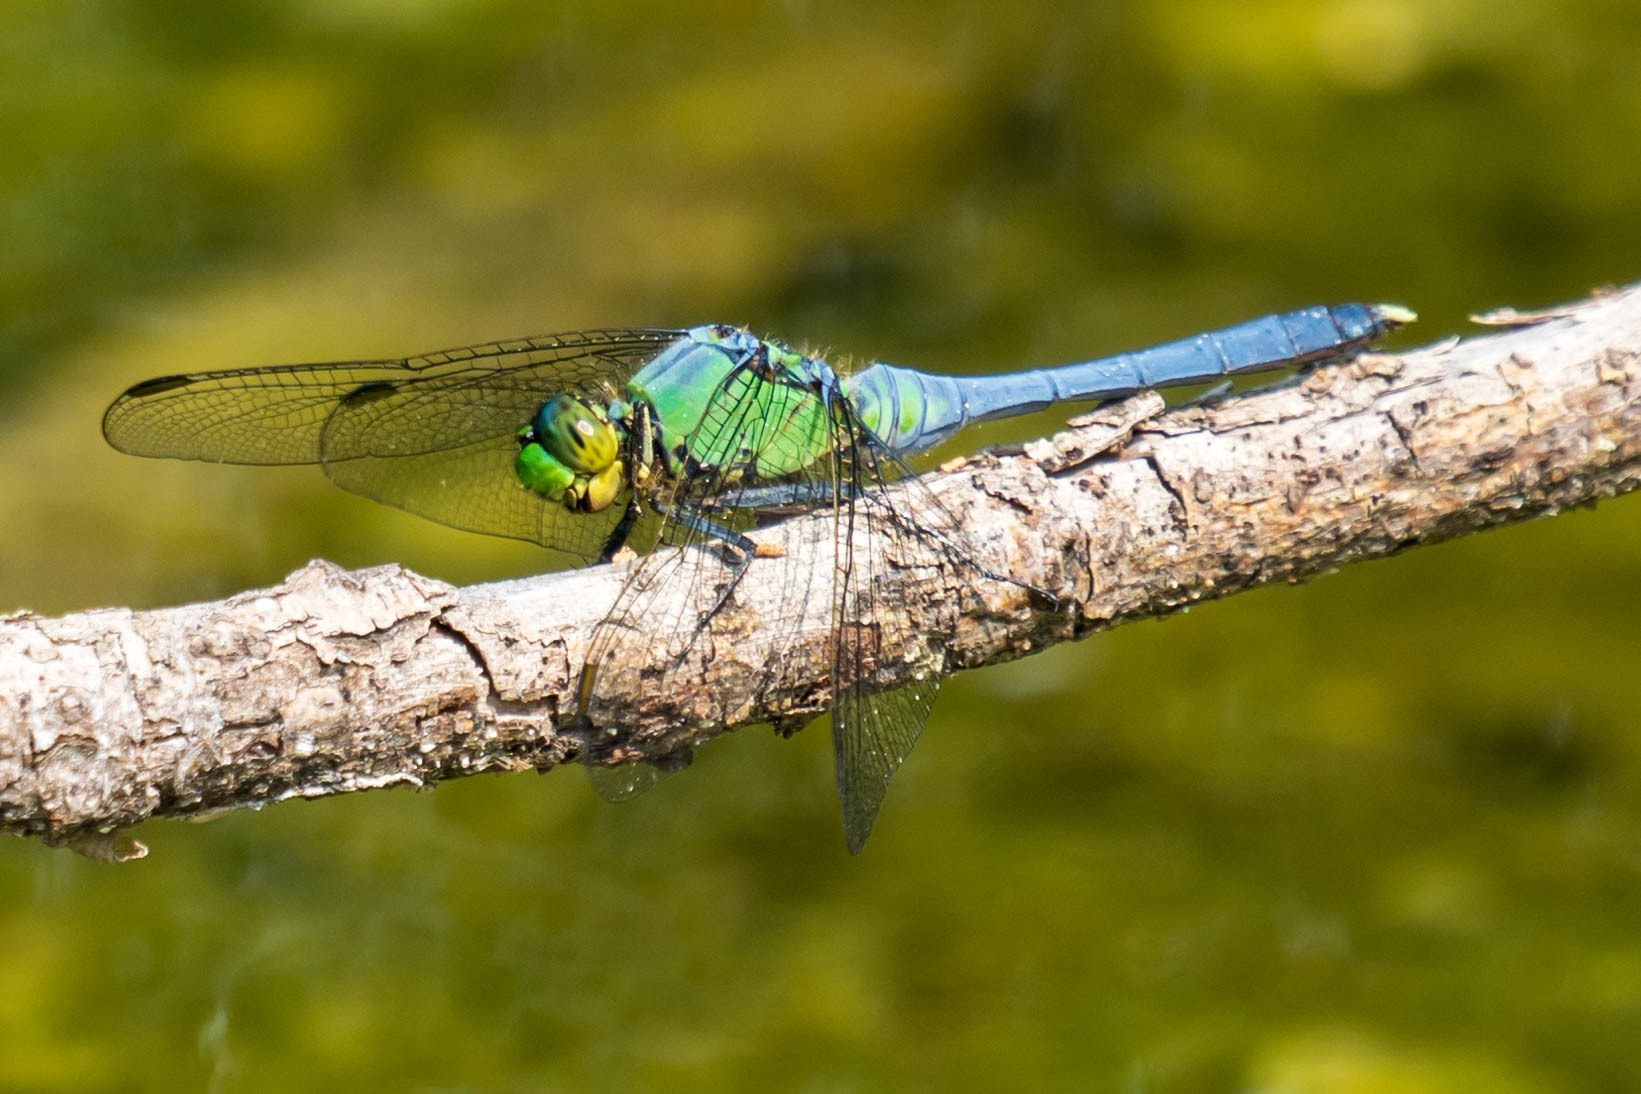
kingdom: Animalia
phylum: Arthropoda
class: Insecta
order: Odonata
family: Libellulidae
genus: Erythemis
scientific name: Erythemis simplicicollis
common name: Eastern pondhawk
